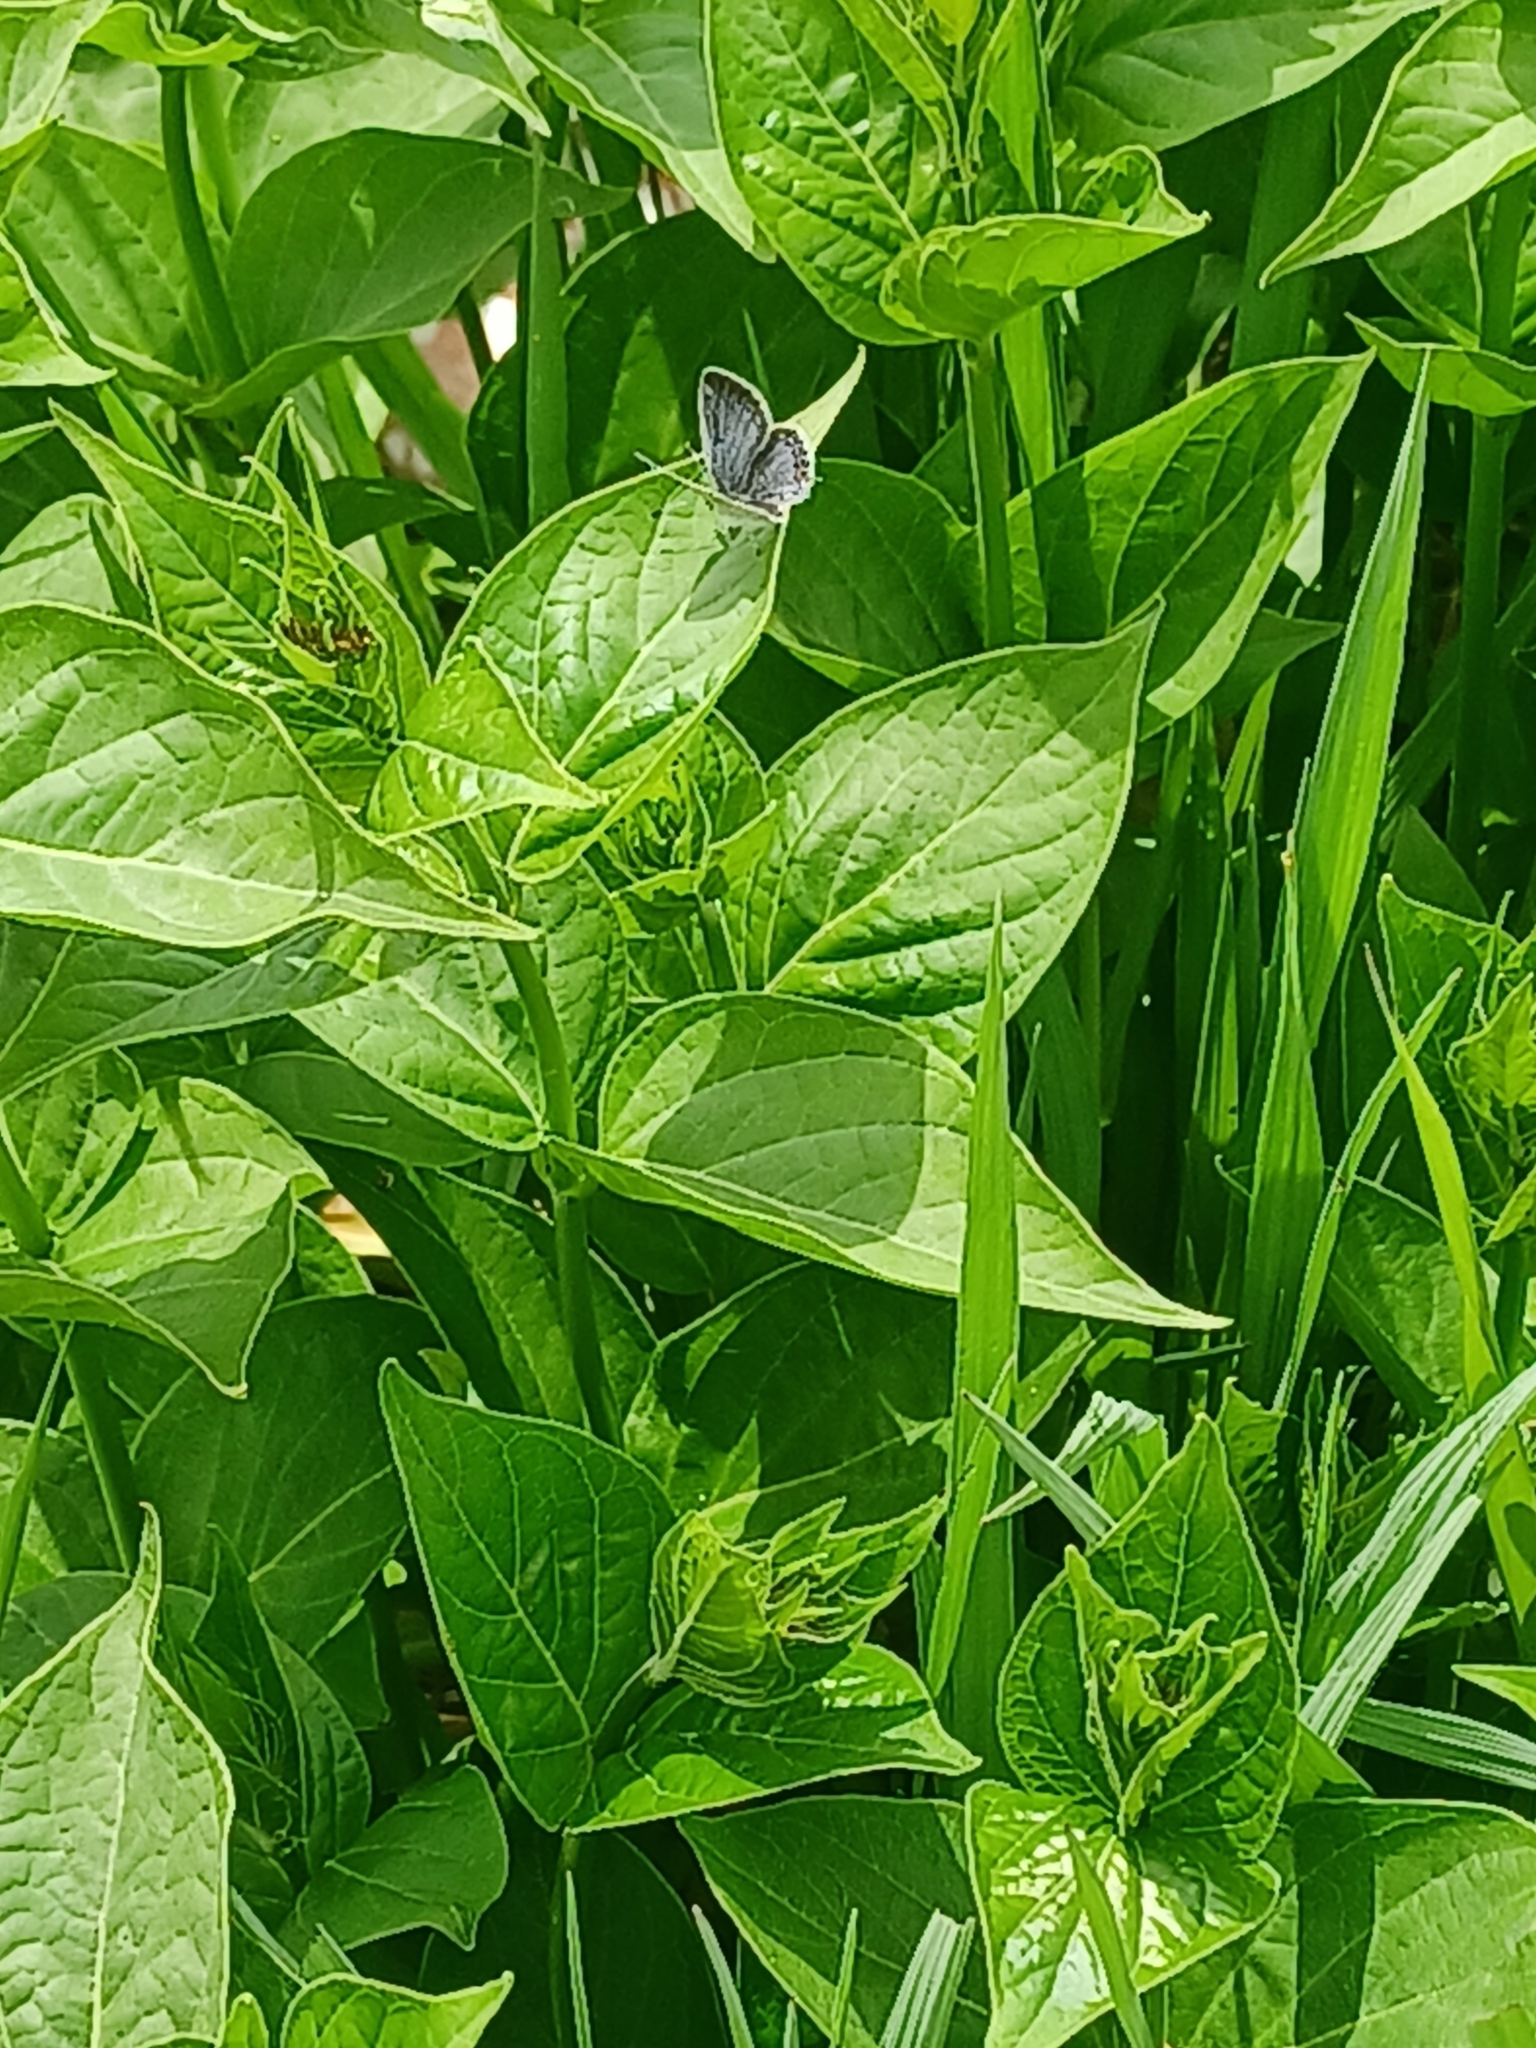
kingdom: Animalia
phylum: Arthropoda
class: Insecta
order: Lepidoptera
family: Lycaenidae
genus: Elkalyce
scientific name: Elkalyce comyntas
